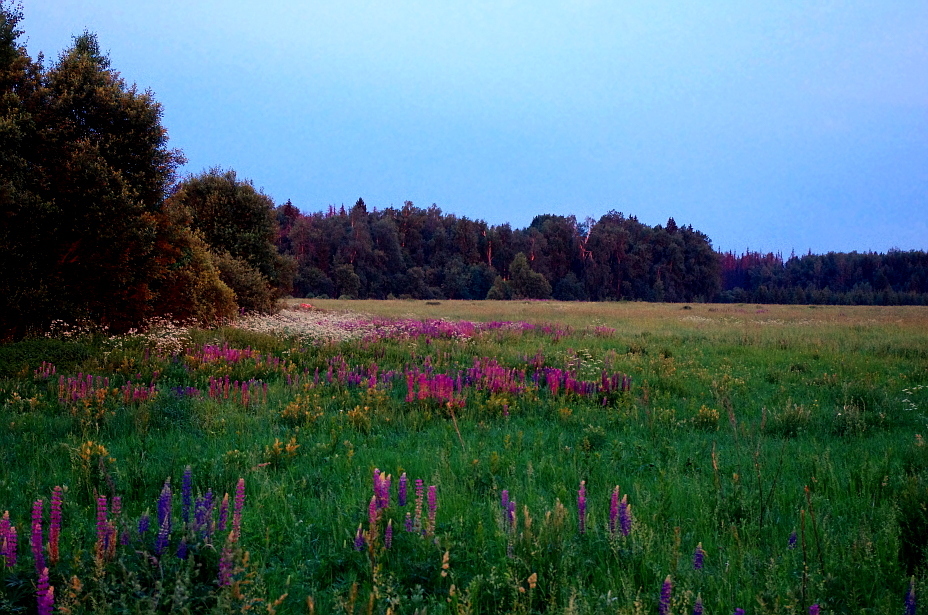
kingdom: Plantae
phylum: Tracheophyta
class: Magnoliopsida
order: Fabales
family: Fabaceae
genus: Lupinus
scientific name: Lupinus polyphyllus
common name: Garden lupin
